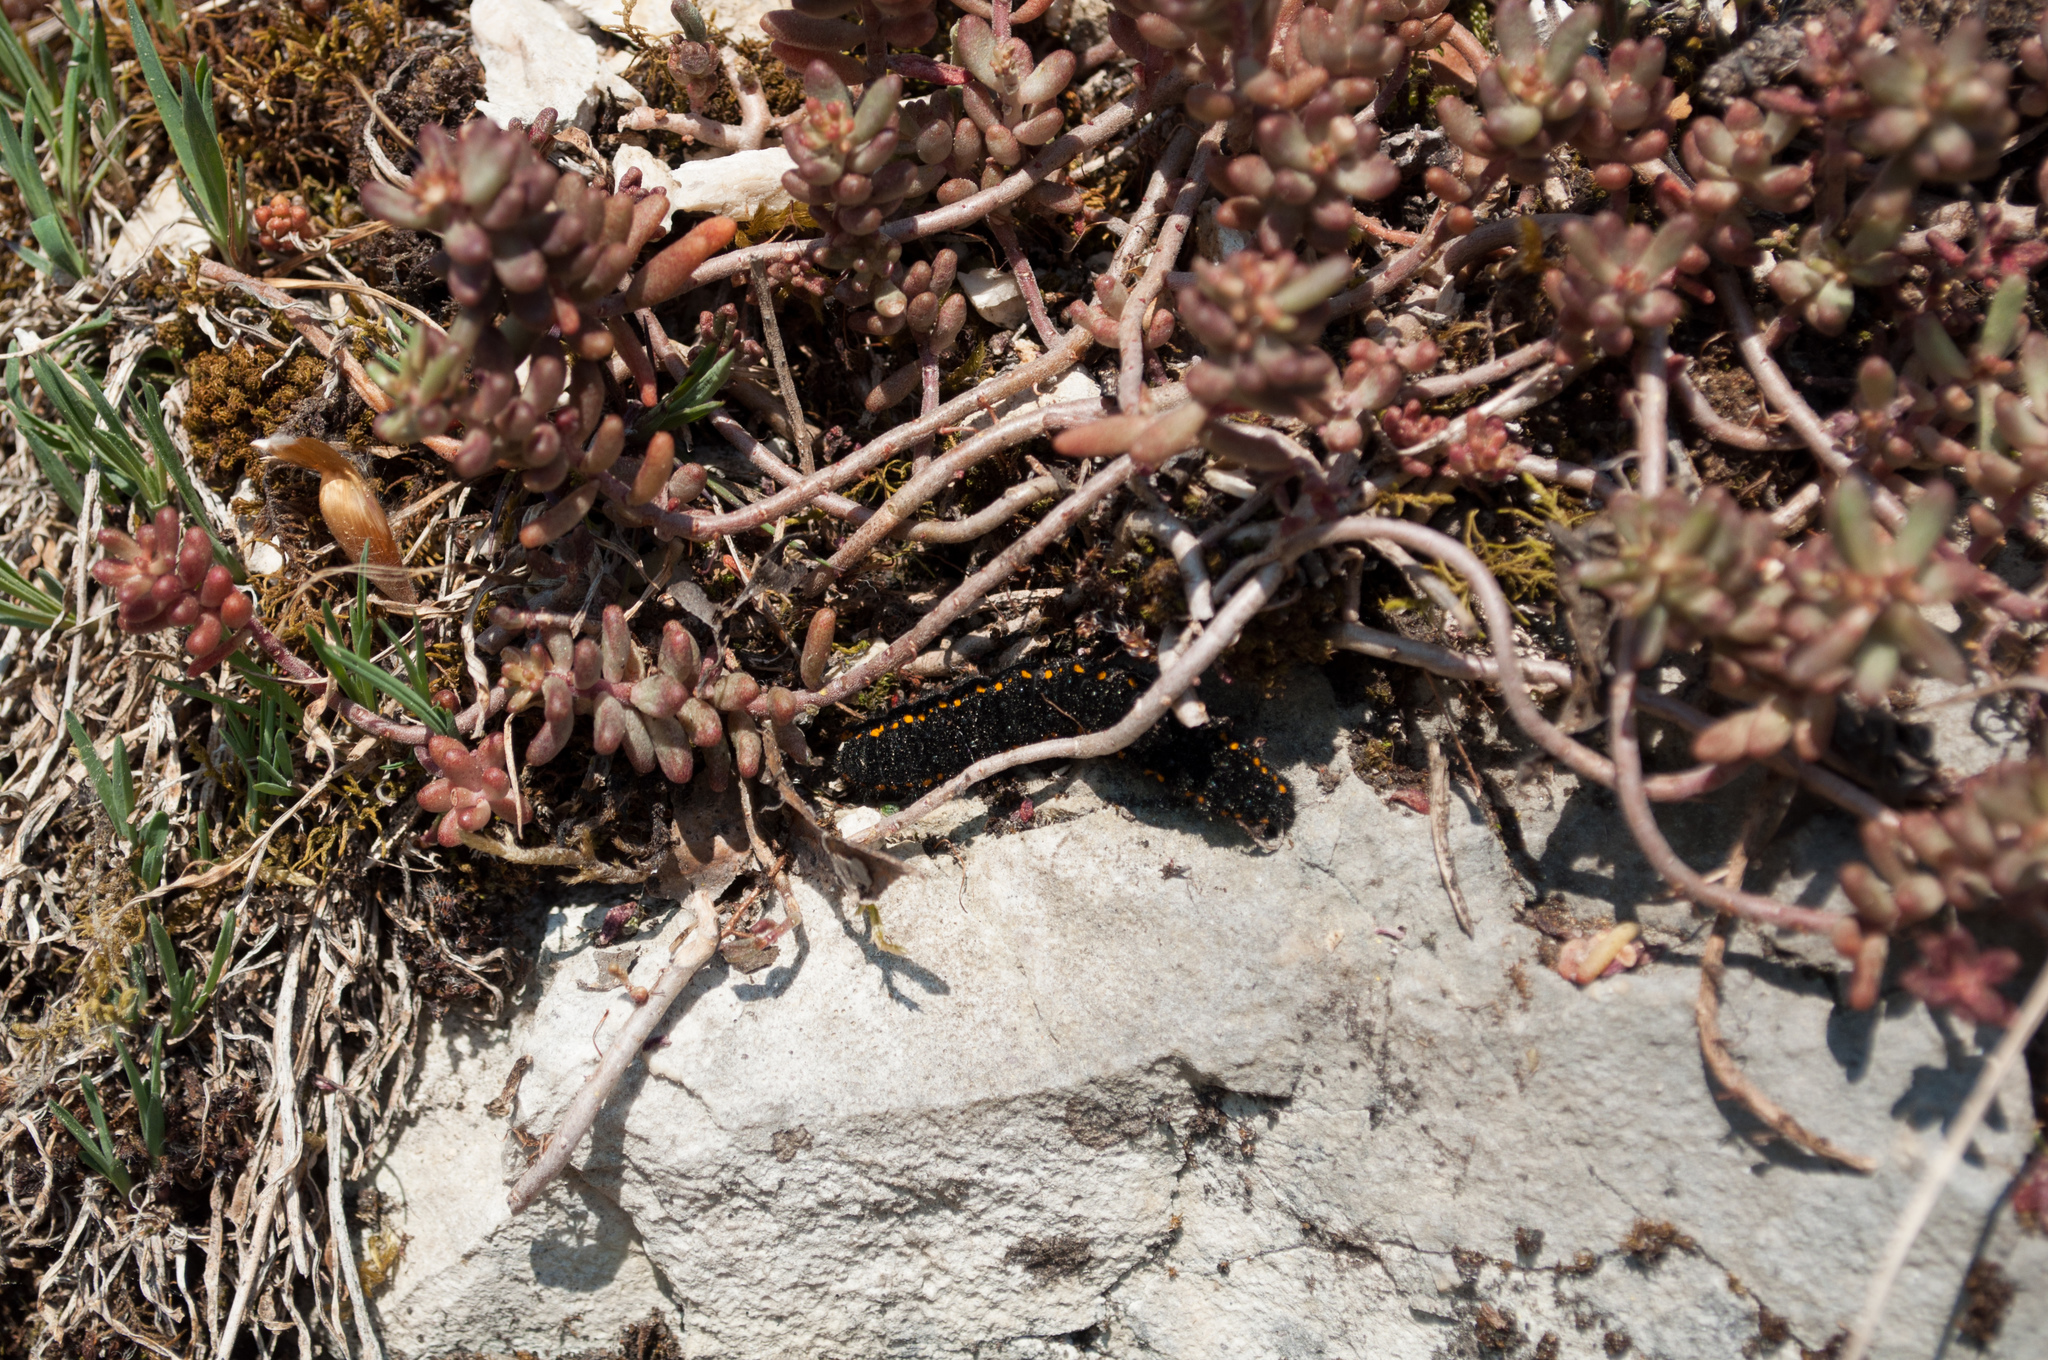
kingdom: Animalia
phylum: Arthropoda
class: Insecta
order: Lepidoptera
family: Papilionidae
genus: Parnassius
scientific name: Parnassius apollo
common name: Apollo
